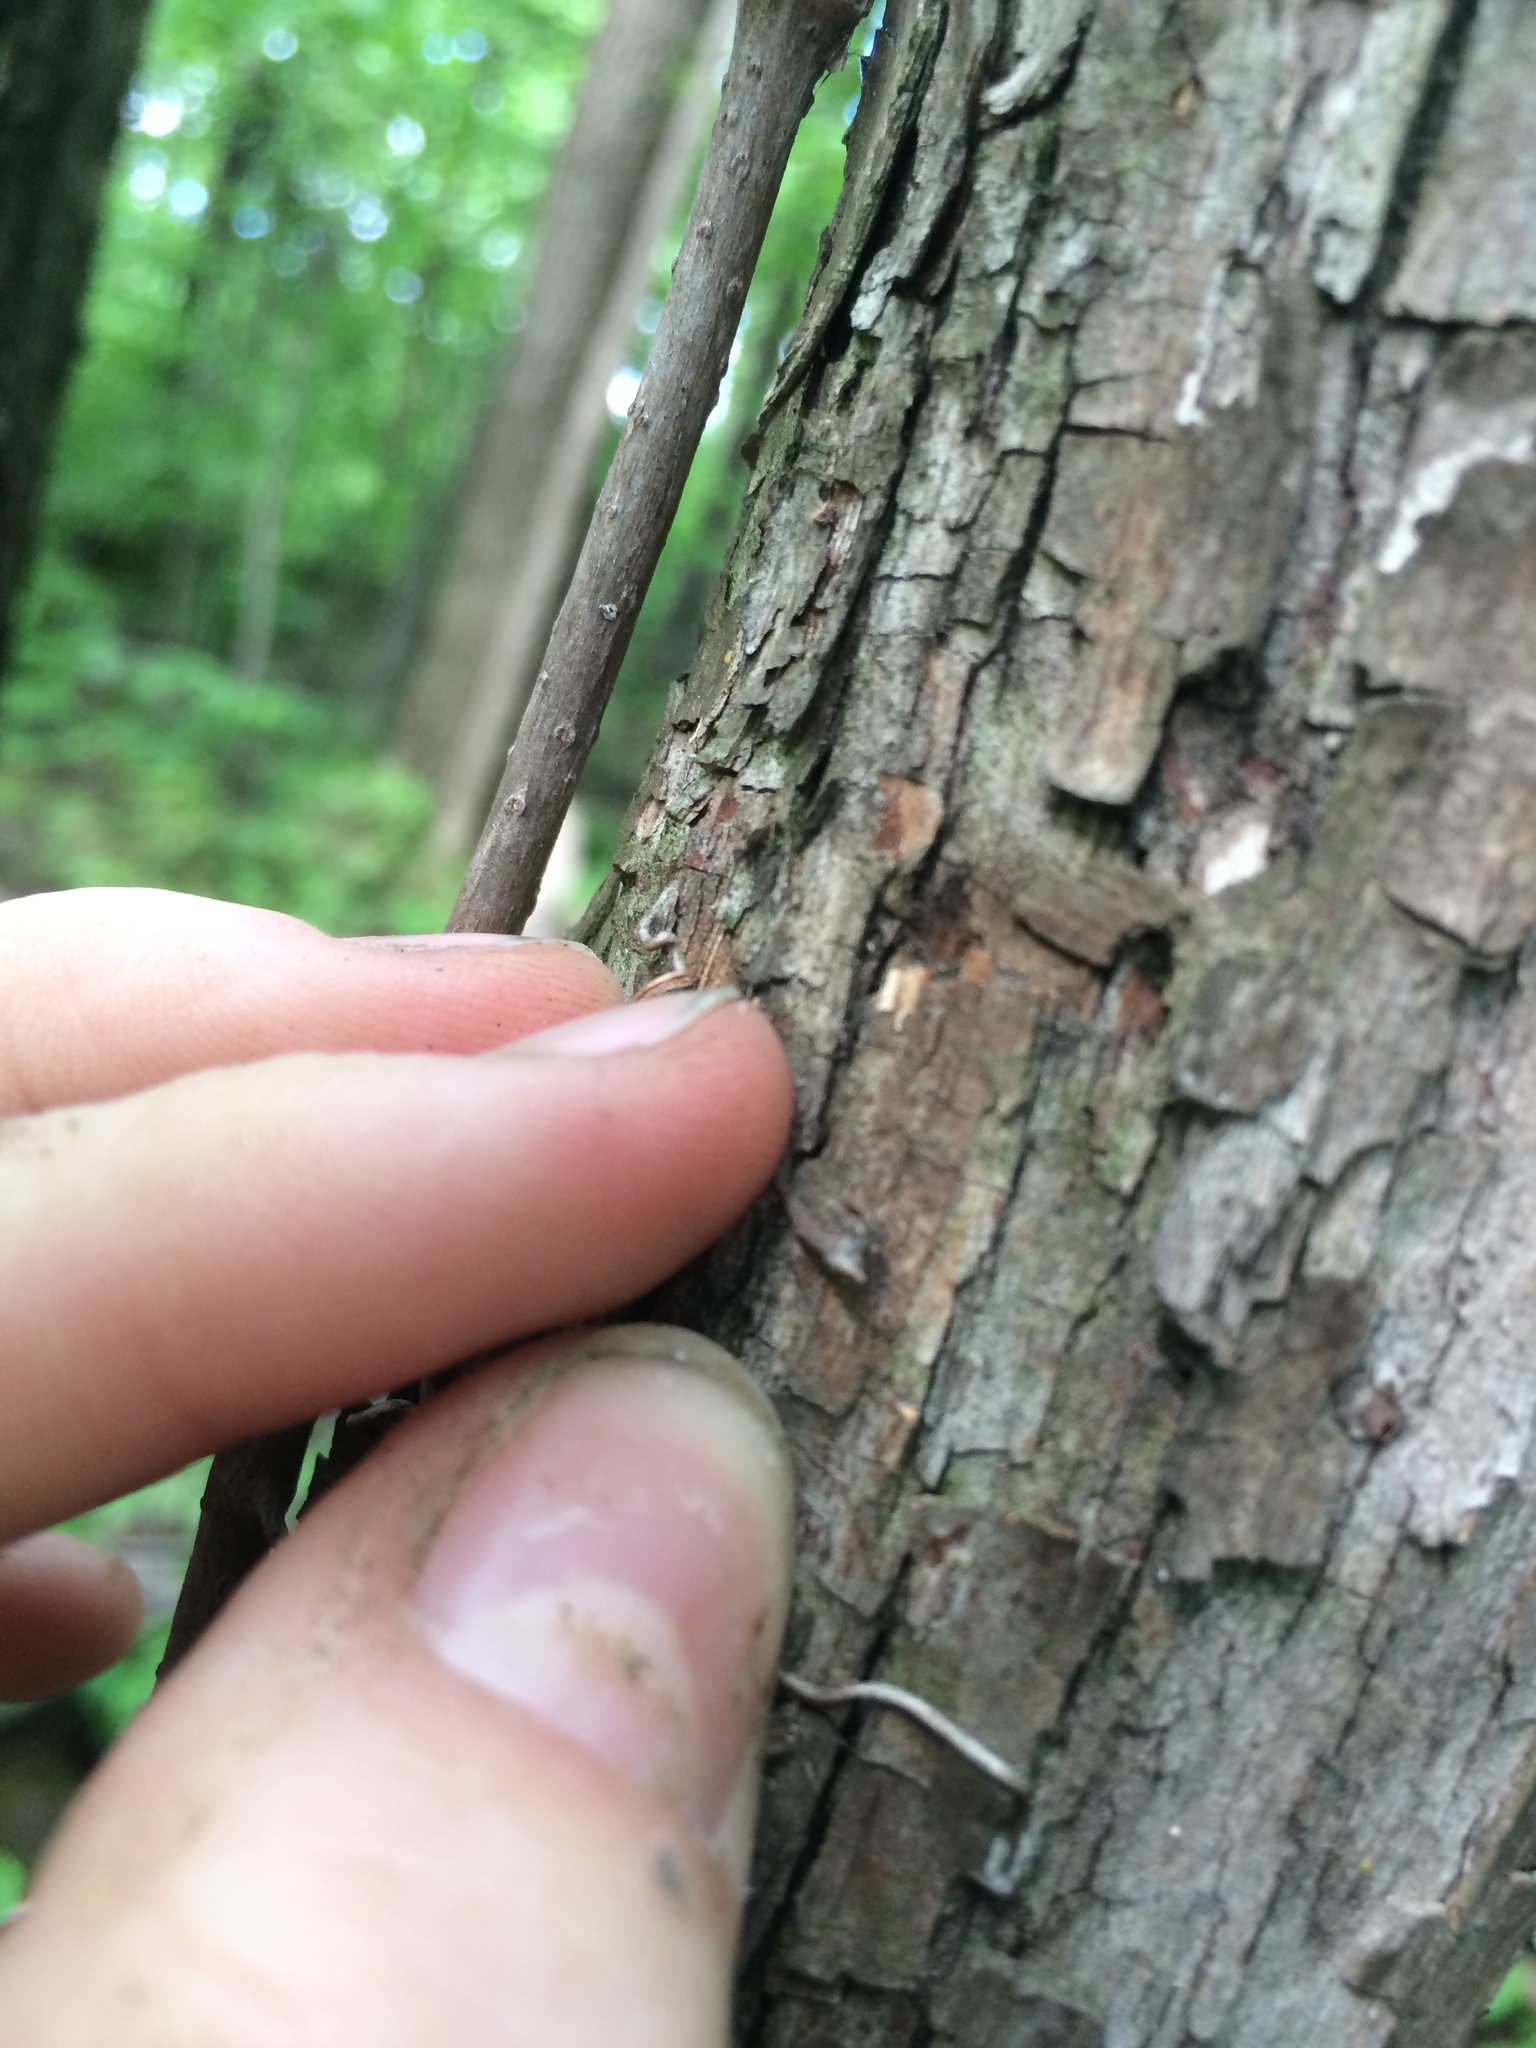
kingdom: Plantae
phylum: Tracheophyta
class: Magnoliopsida
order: Fagales
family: Betulaceae
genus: Ostrya
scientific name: Ostrya virginiana
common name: Ironwood
